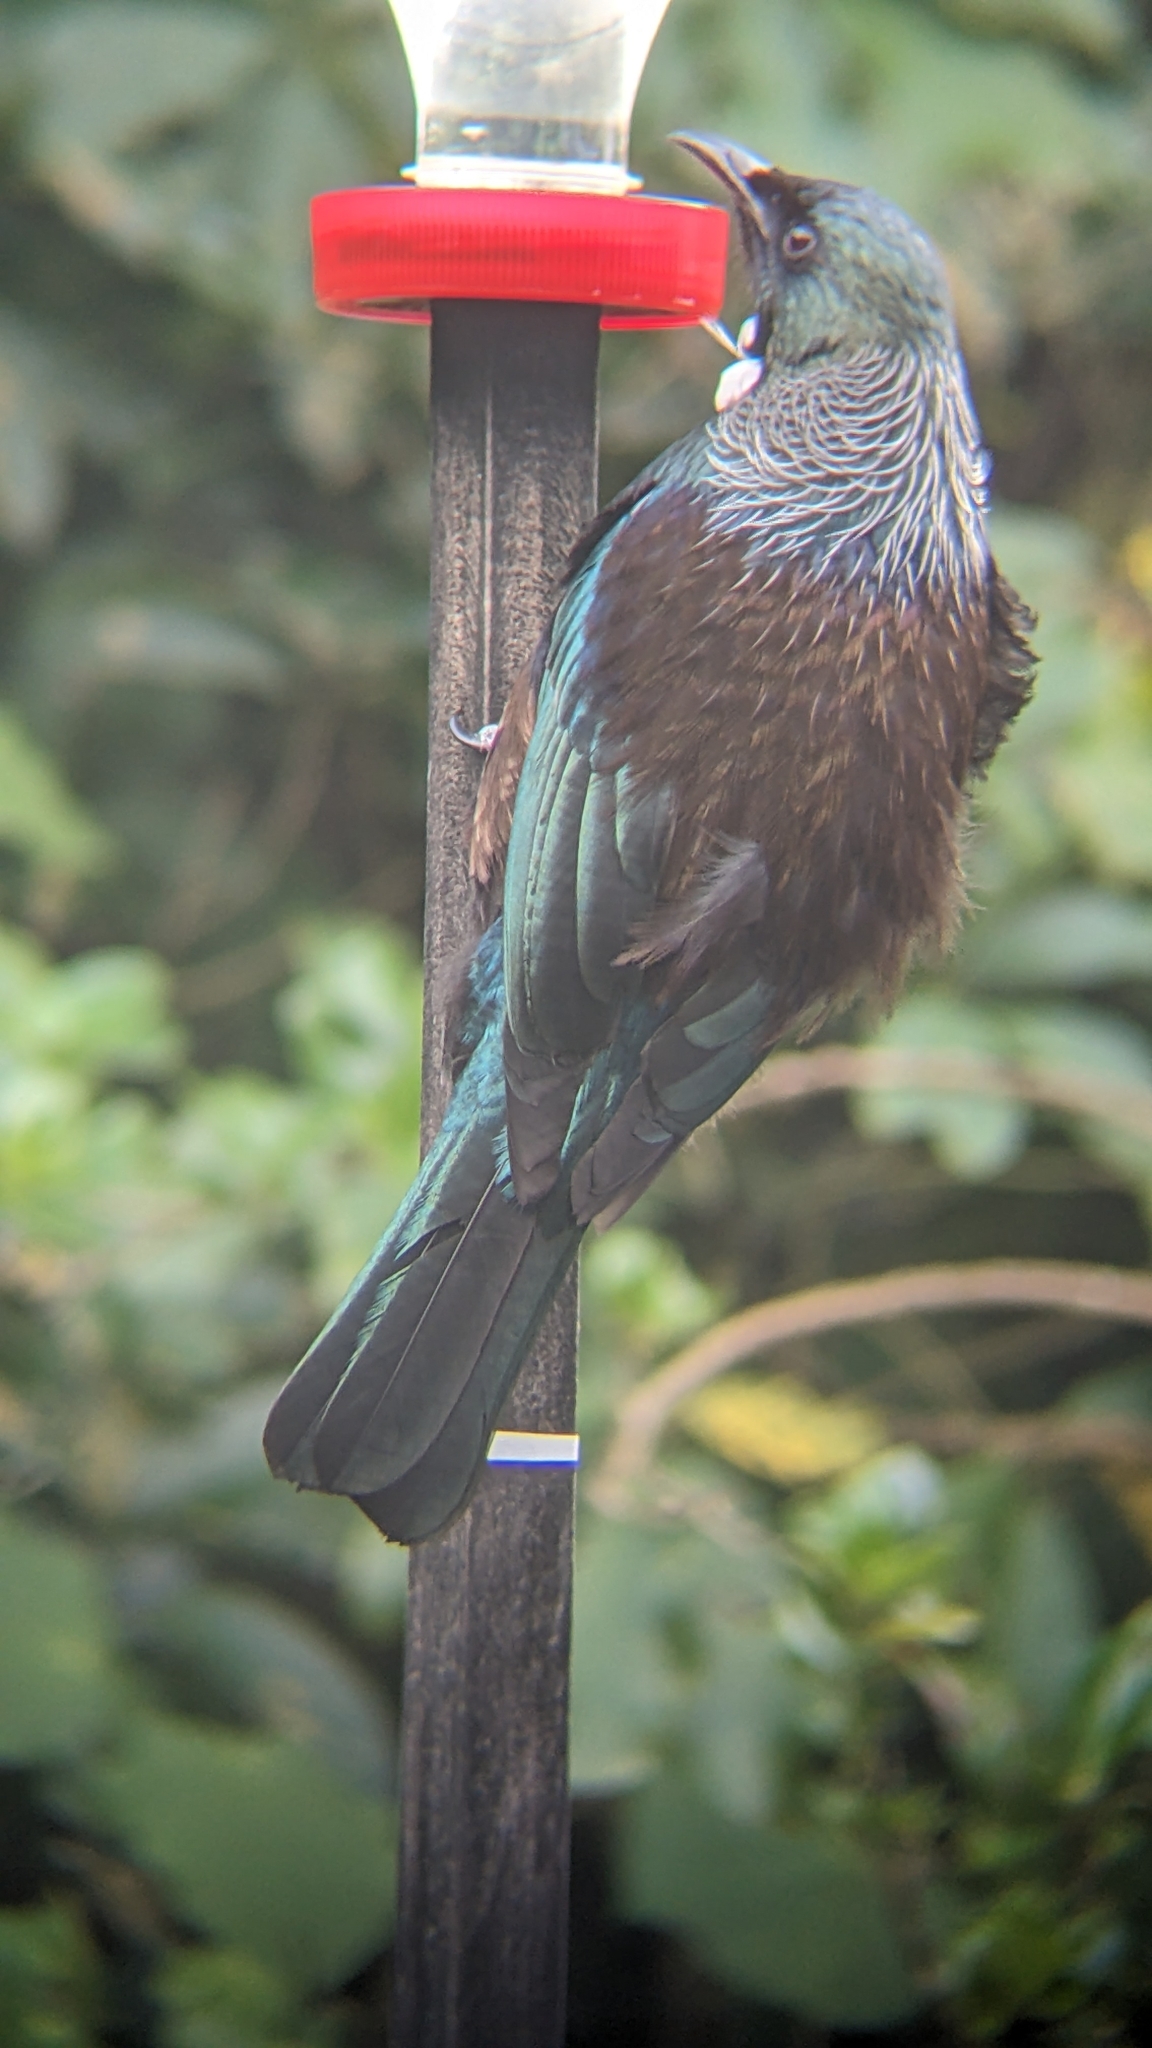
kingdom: Animalia
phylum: Chordata
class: Aves
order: Passeriformes
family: Meliphagidae
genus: Prosthemadera
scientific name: Prosthemadera novaeseelandiae
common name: Tui
